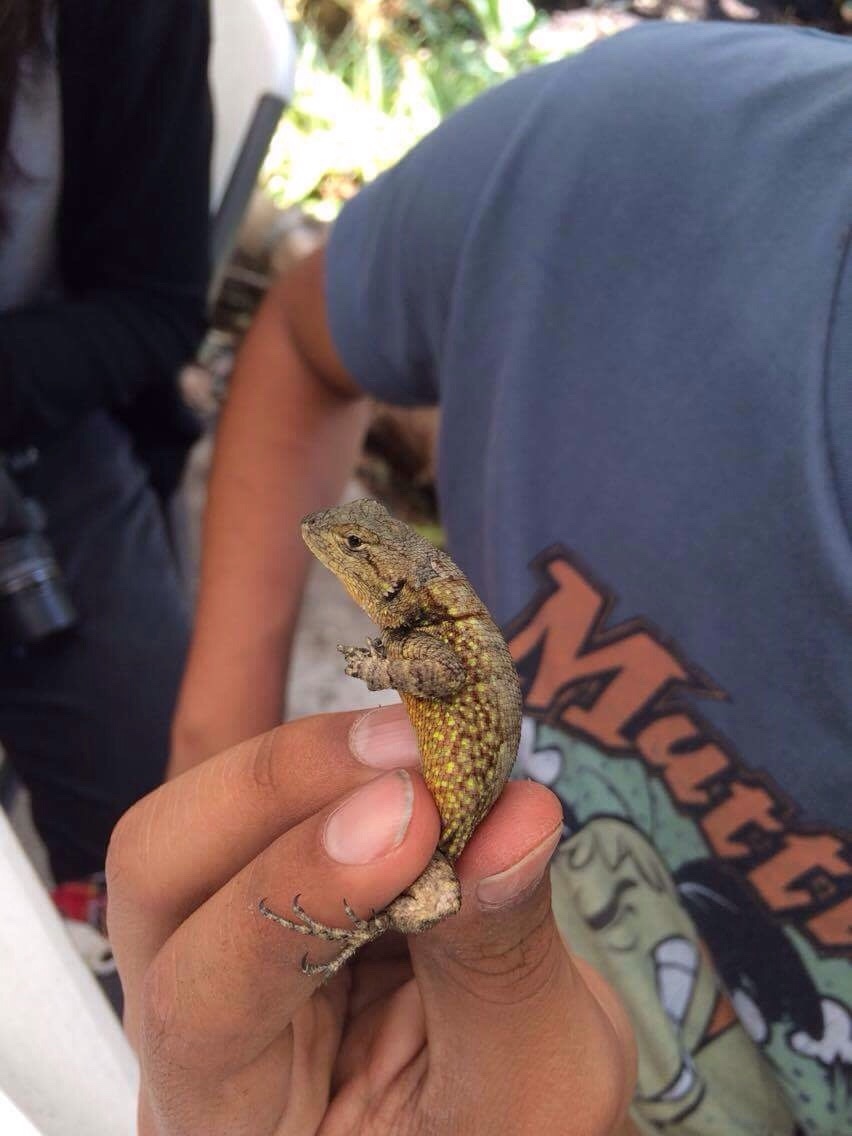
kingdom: Animalia
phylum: Chordata
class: Squamata
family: Phrynosomatidae
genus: Sceloporus
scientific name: Sceloporus grammicus
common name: Mesquite lizard
